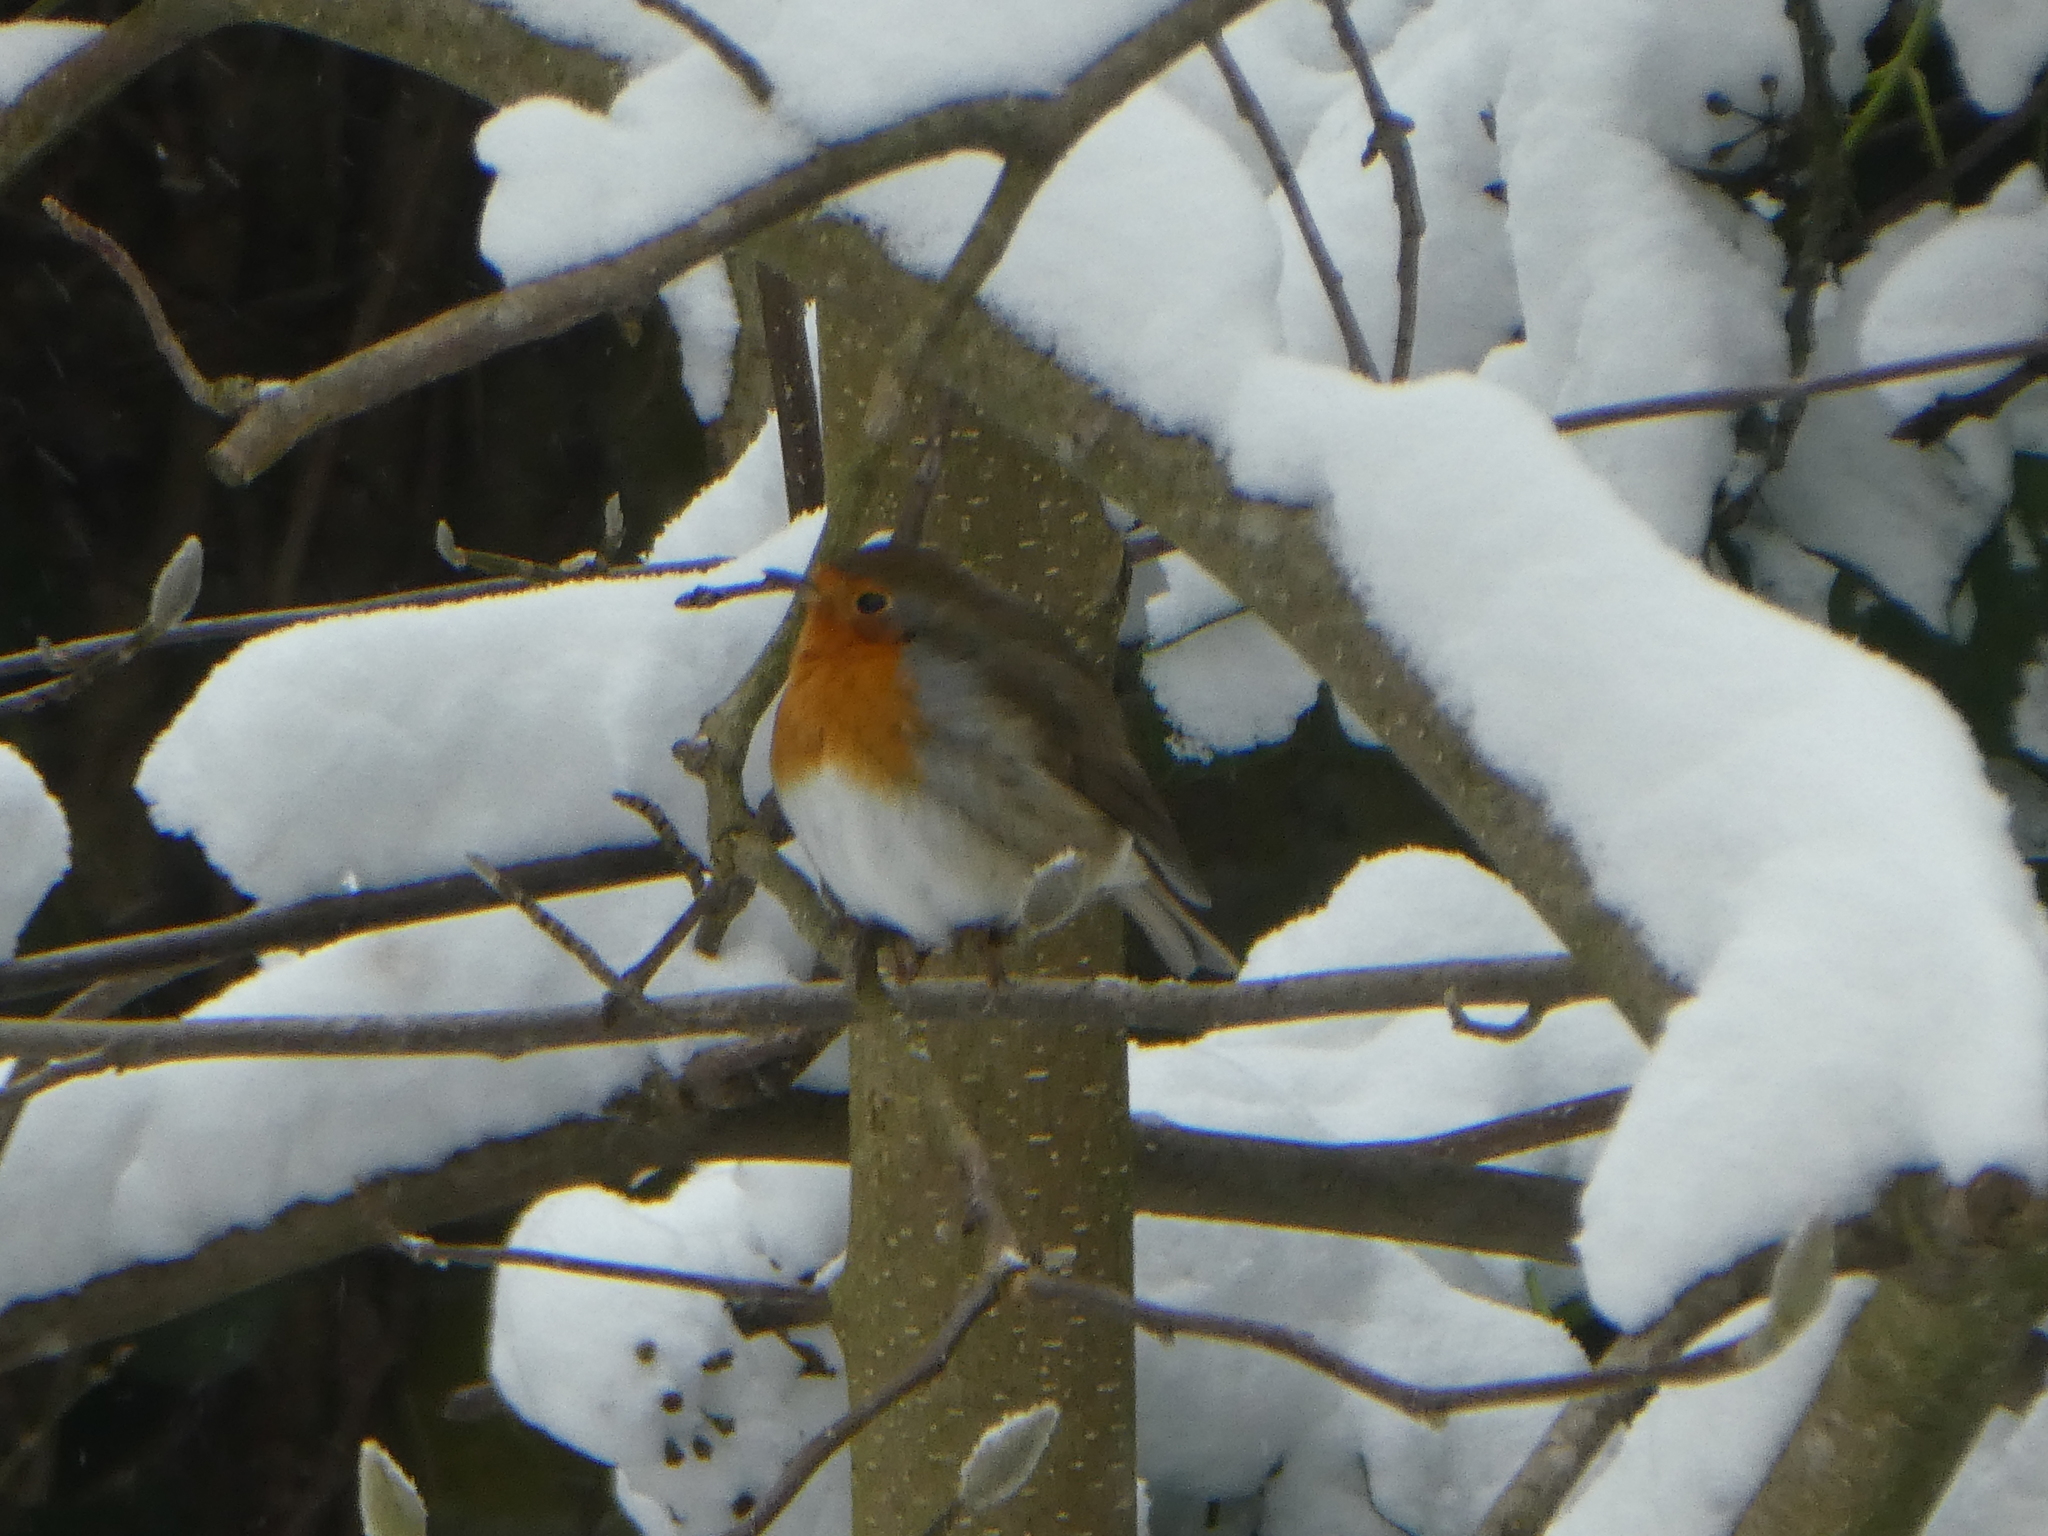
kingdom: Animalia
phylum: Chordata
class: Aves
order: Passeriformes
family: Muscicapidae
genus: Erithacus
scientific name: Erithacus rubecula
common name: European robin
